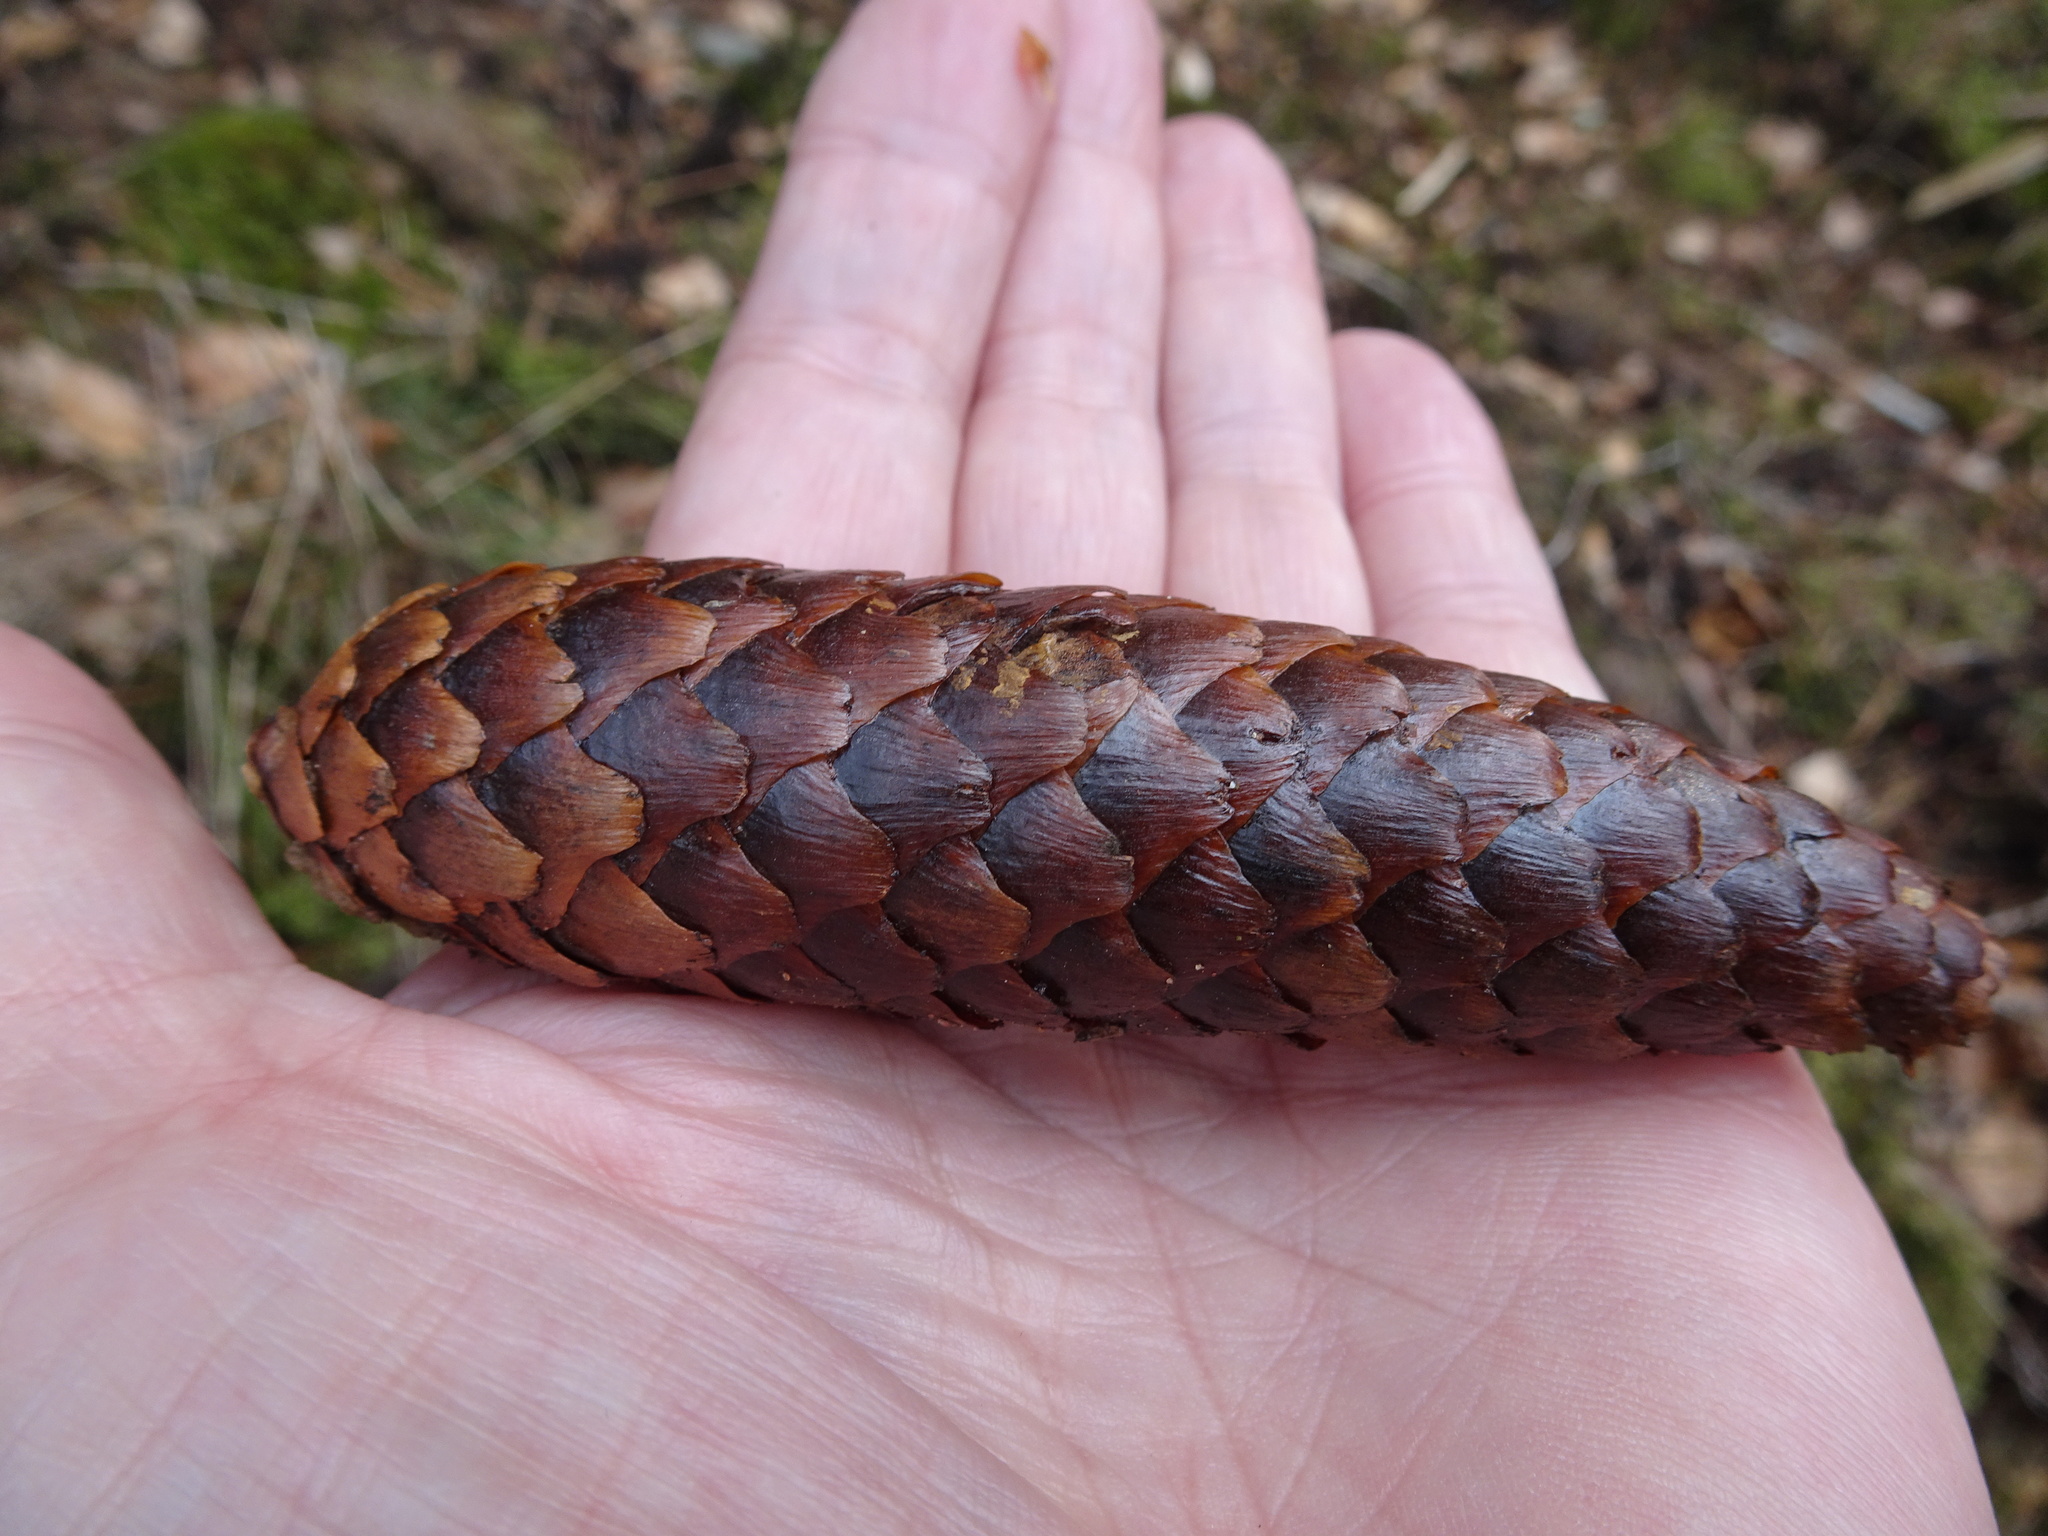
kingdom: Plantae
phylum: Tracheophyta
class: Pinopsida
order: Pinales
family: Pinaceae
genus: Picea
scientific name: Picea abies
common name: Norway spruce
